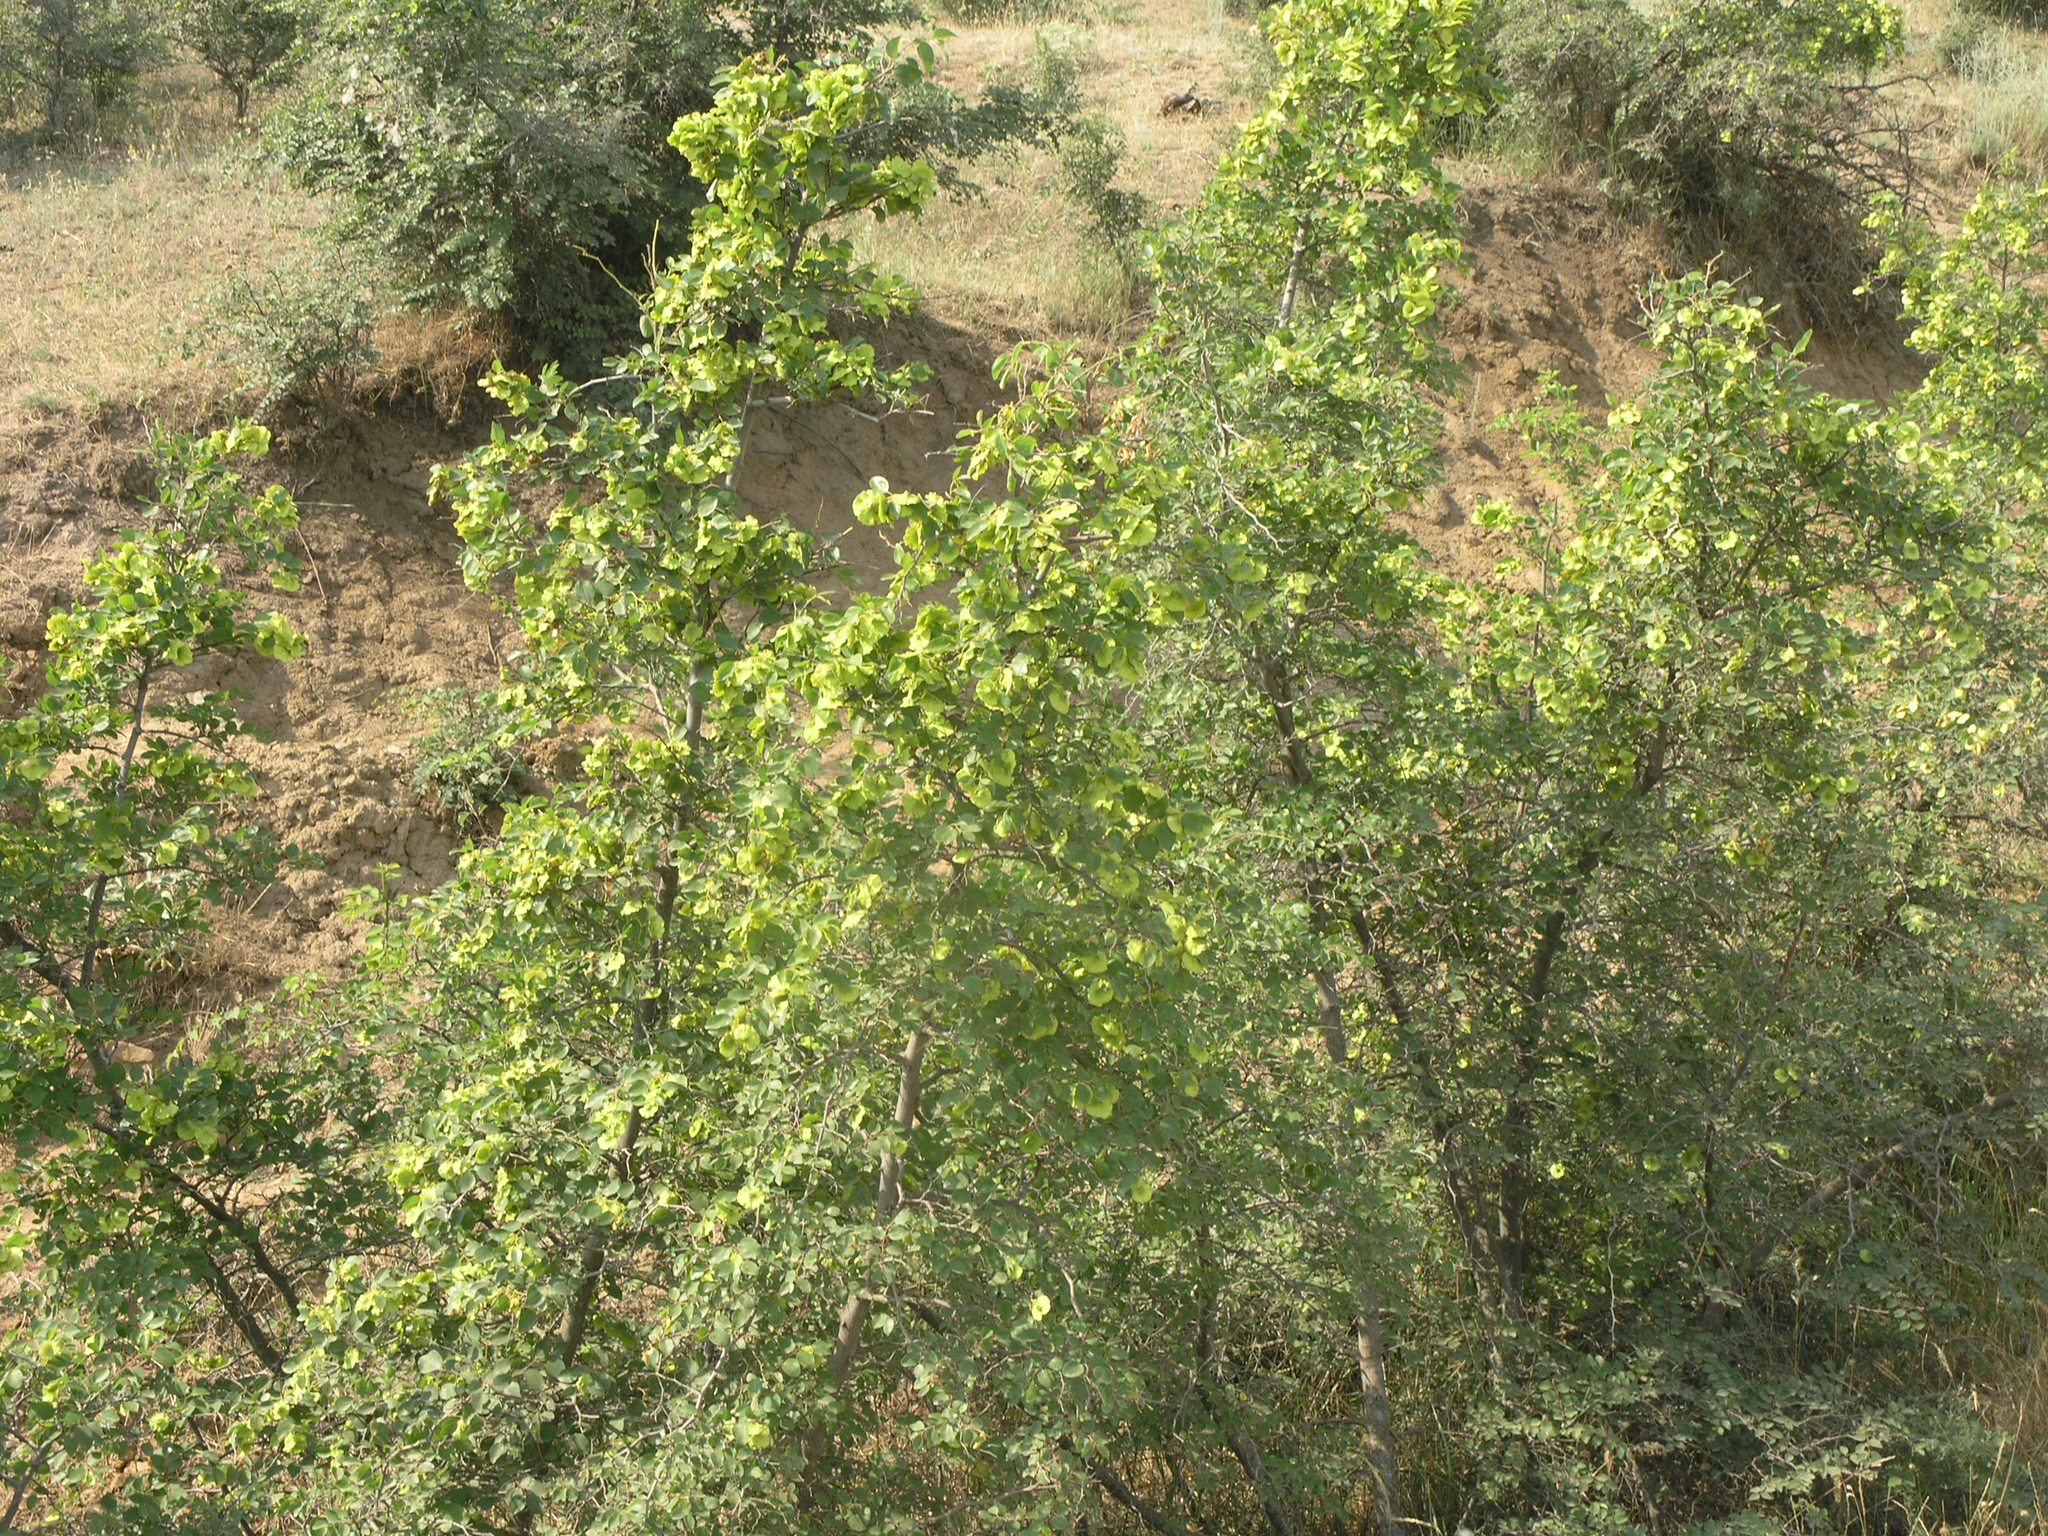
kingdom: Plantae
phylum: Tracheophyta
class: Magnoliopsida
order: Rosales
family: Rhamnaceae
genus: Paliurus
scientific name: Paliurus spina-christi
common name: Jeruselem thorn
